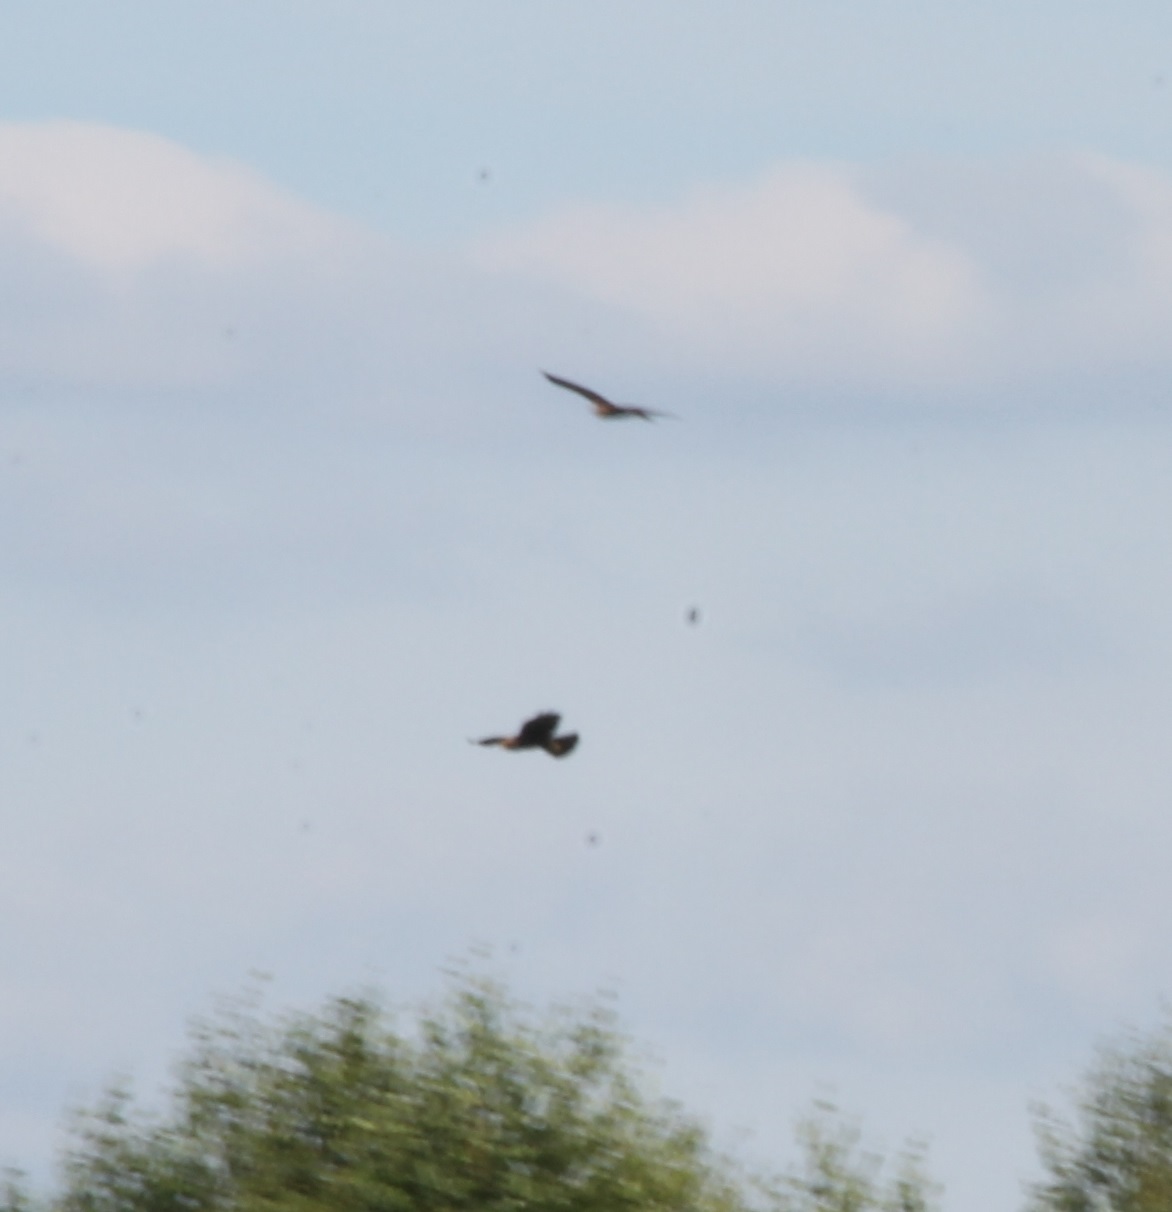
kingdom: Animalia
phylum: Chordata
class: Aves
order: Accipitriformes
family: Accipitridae
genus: Circus
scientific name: Circus aeruginosus
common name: Western marsh harrier
